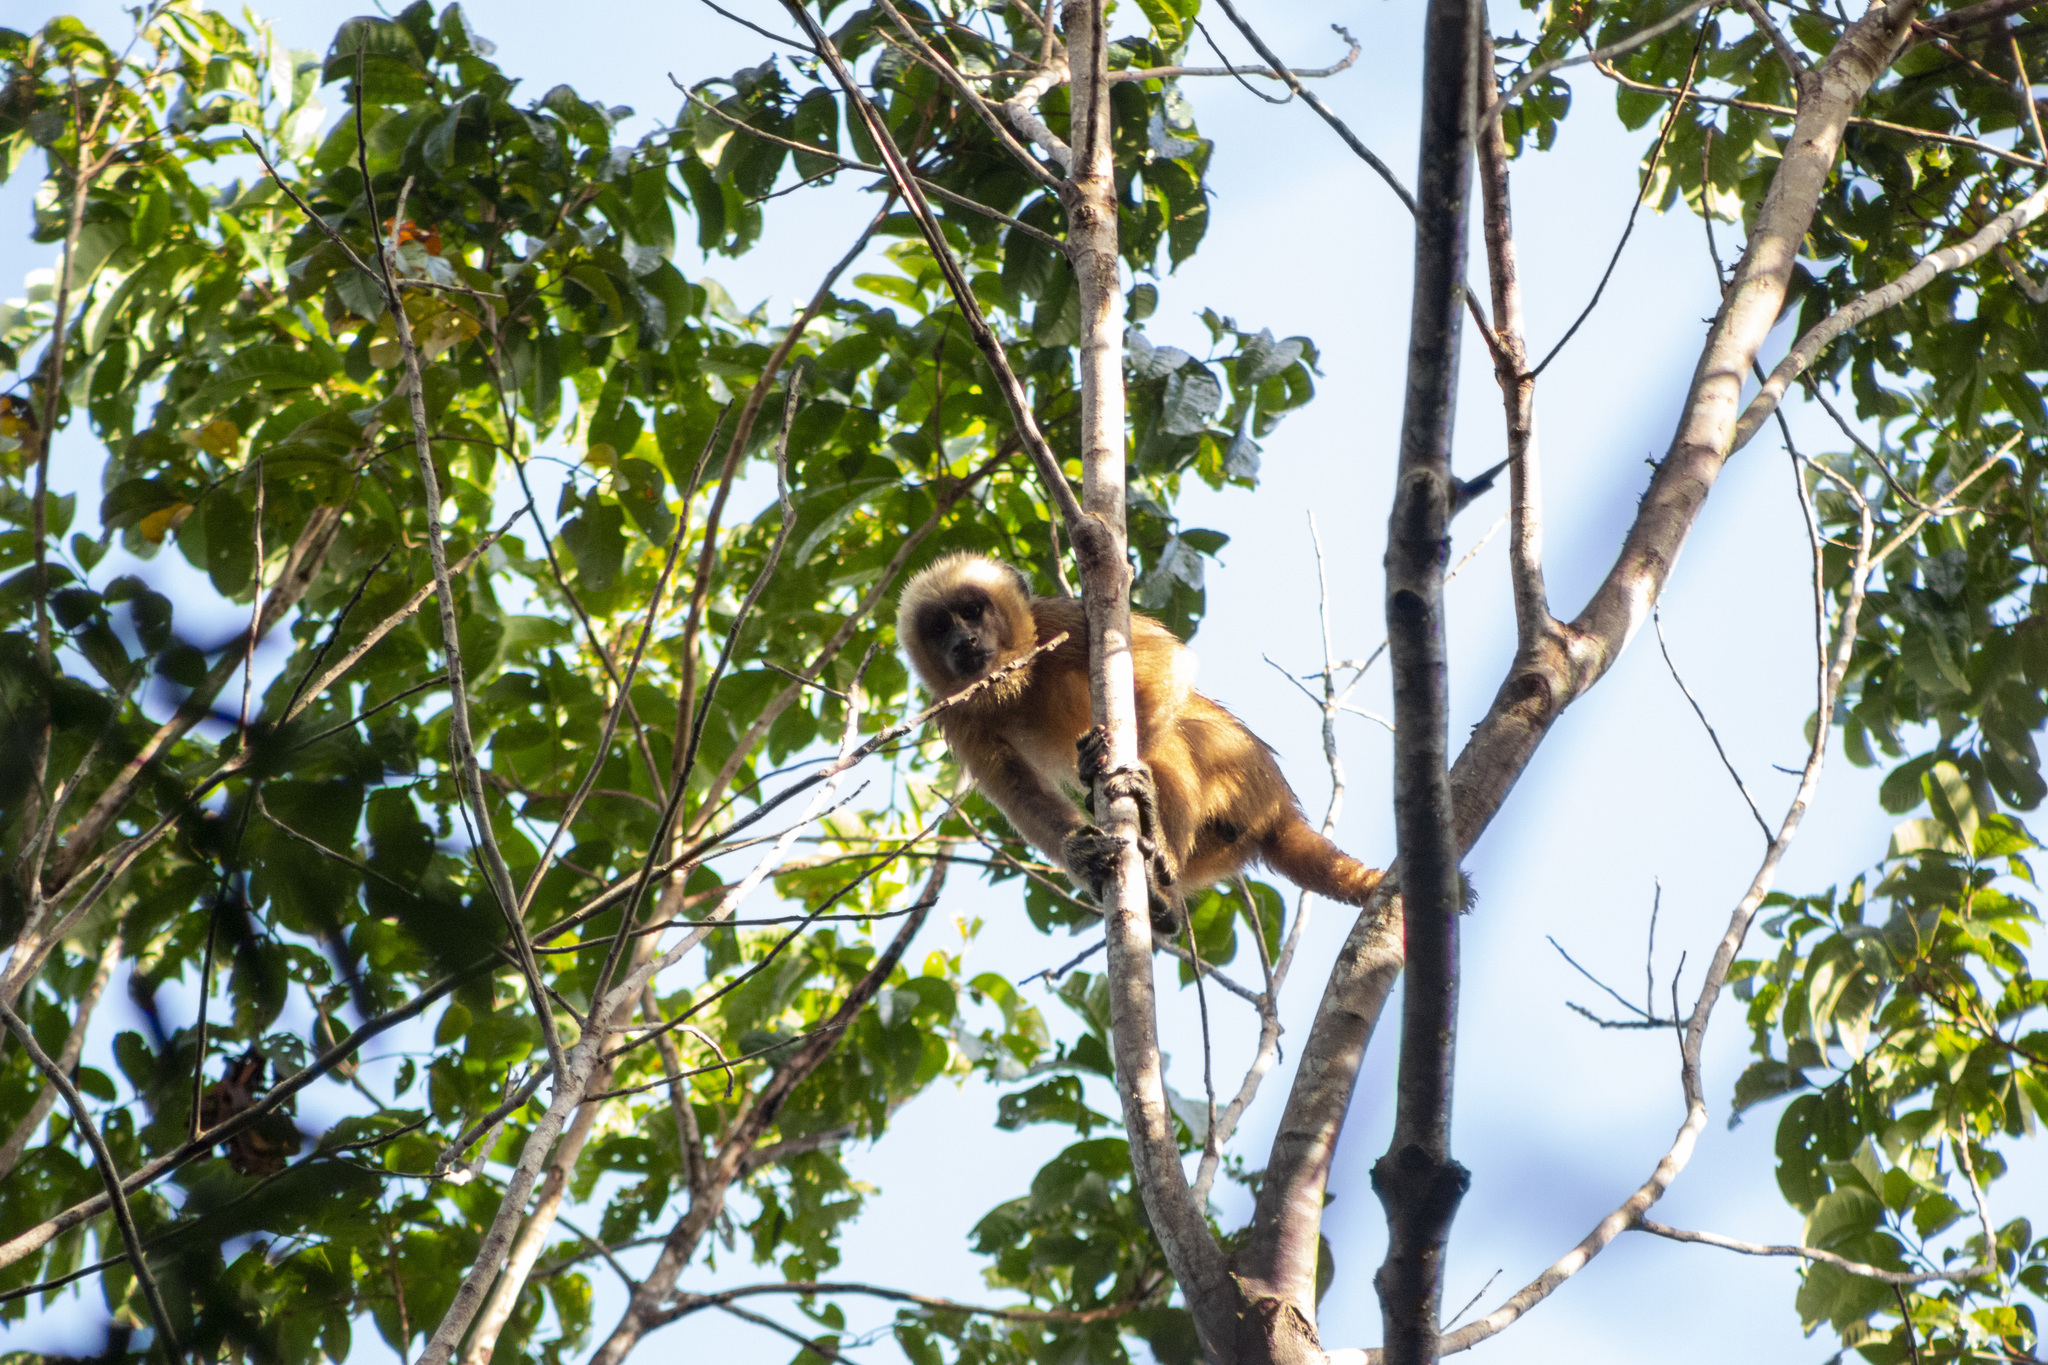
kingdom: Animalia
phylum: Chordata
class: Mammalia
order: Primates
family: Cebidae
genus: Sapajus
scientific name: Sapajus flavius
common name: Blond capuchin
